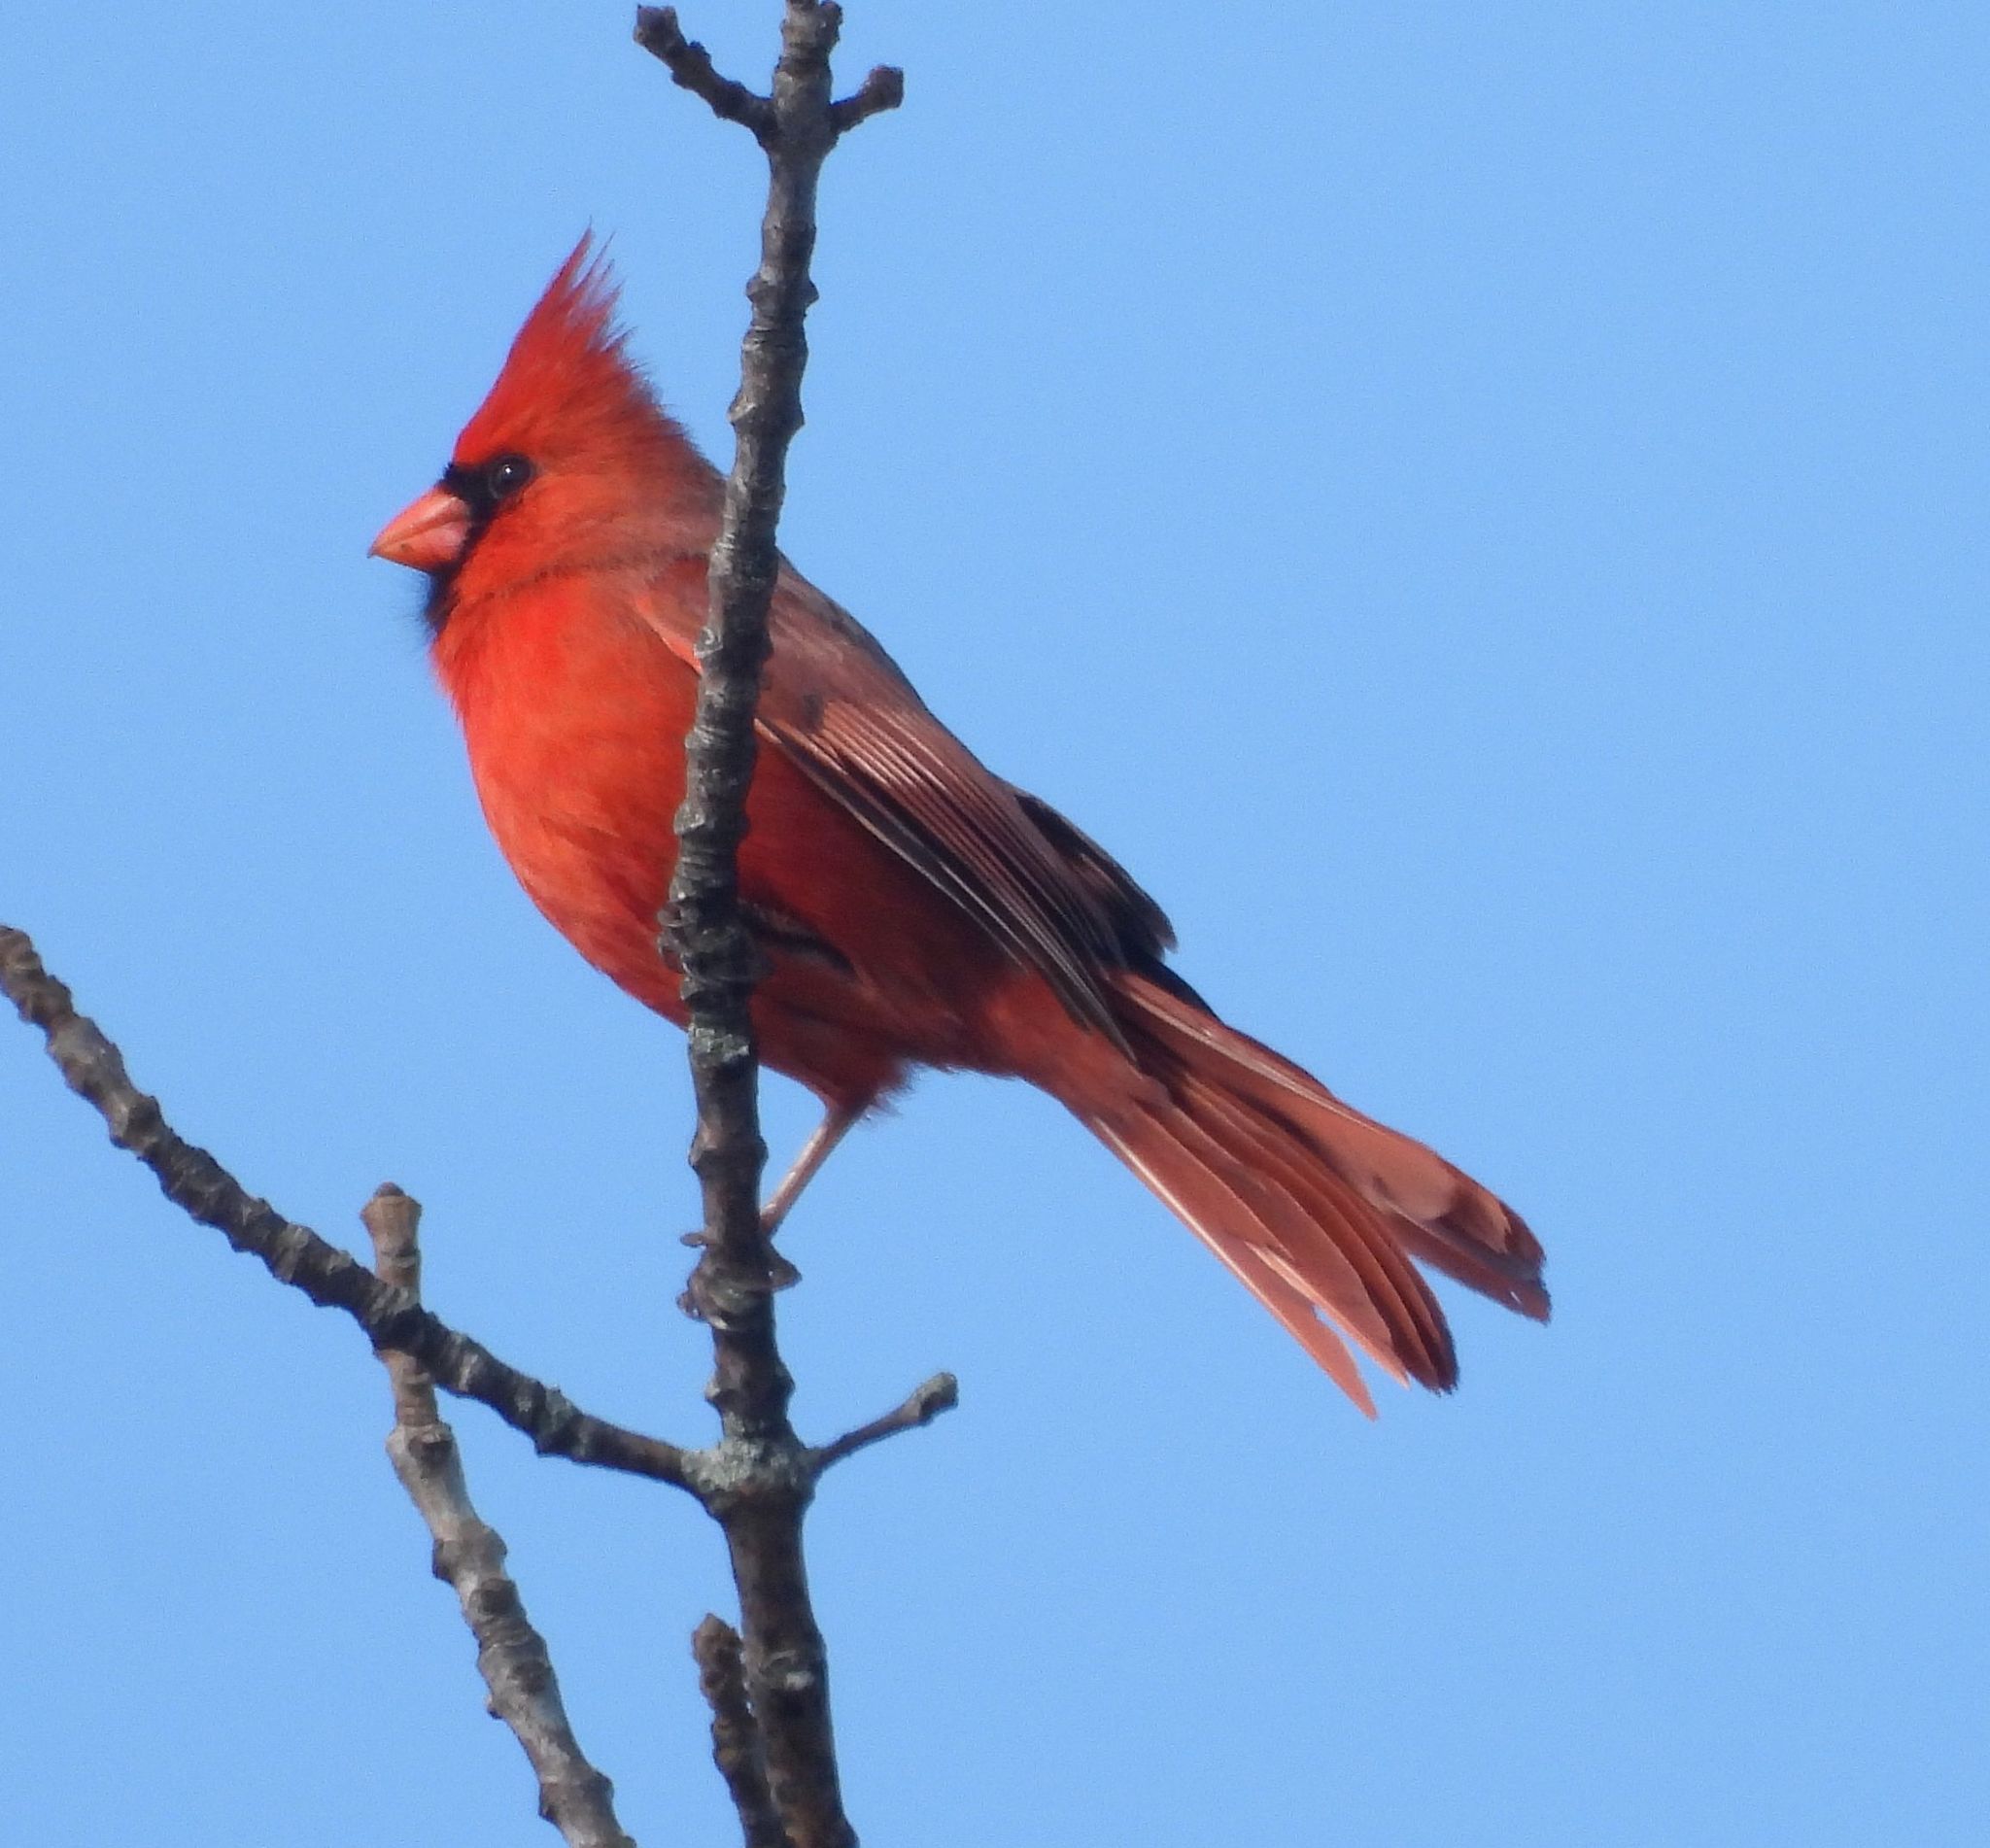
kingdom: Animalia
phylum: Chordata
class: Aves
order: Passeriformes
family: Cardinalidae
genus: Cardinalis
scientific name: Cardinalis cardinalis
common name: Northern cardinal
